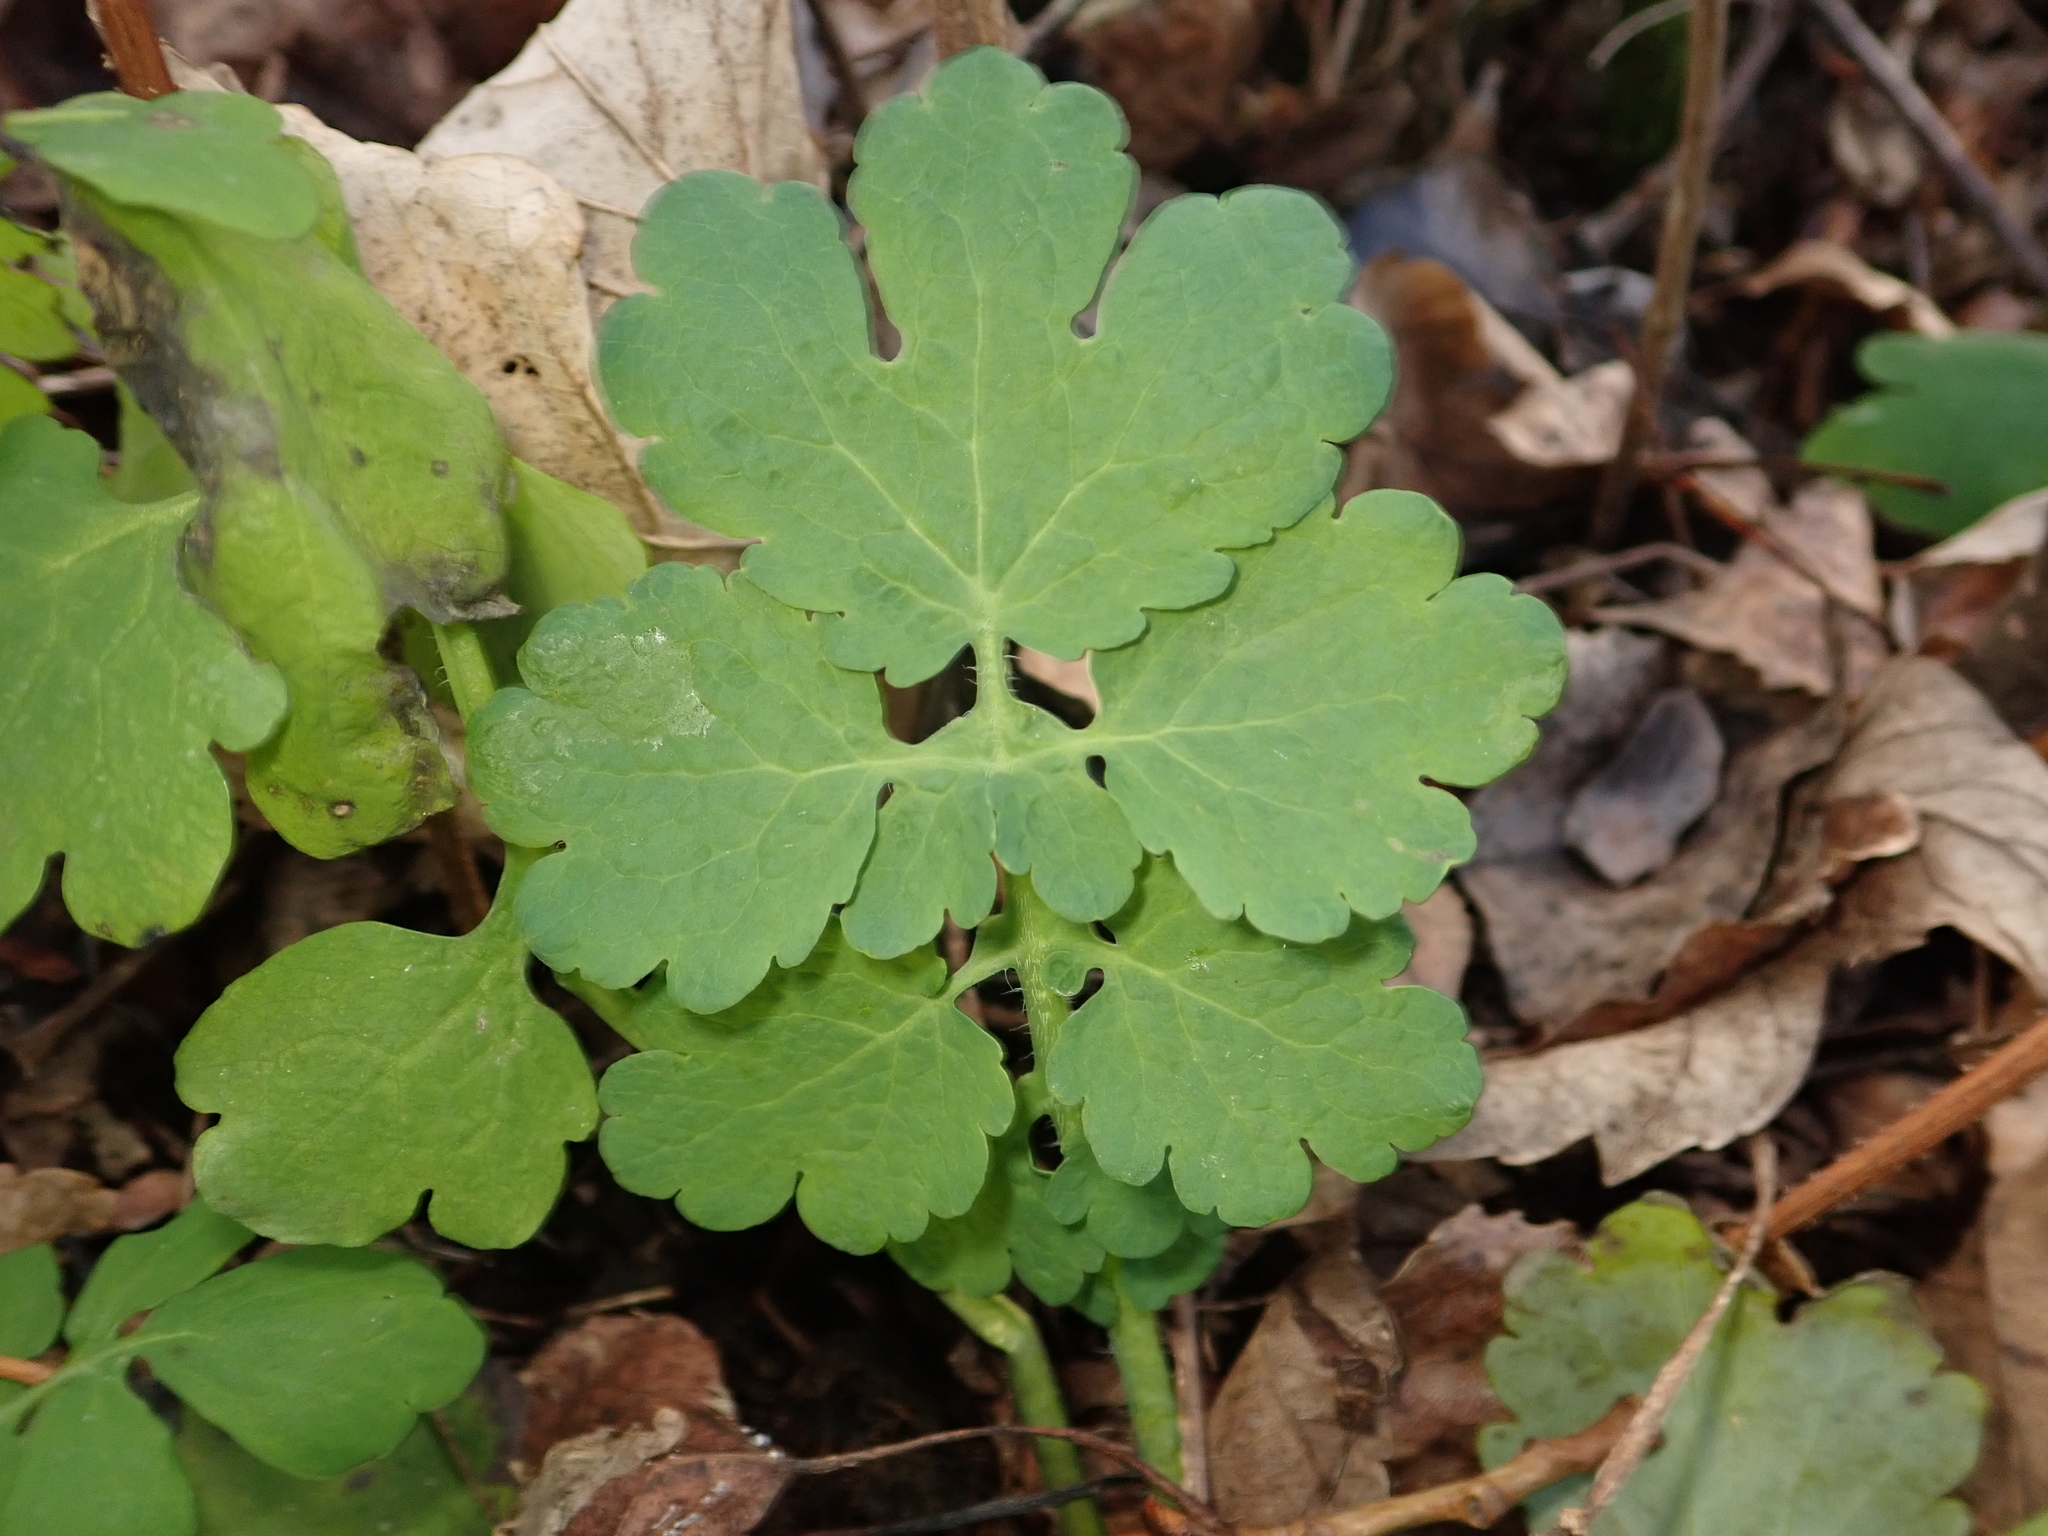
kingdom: Plantae
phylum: Tracheophyta
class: Magnoliopsida
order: Ranunculales
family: Papaveraceae
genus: Chelidonium
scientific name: Chelidonium majus
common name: Greater celandine
